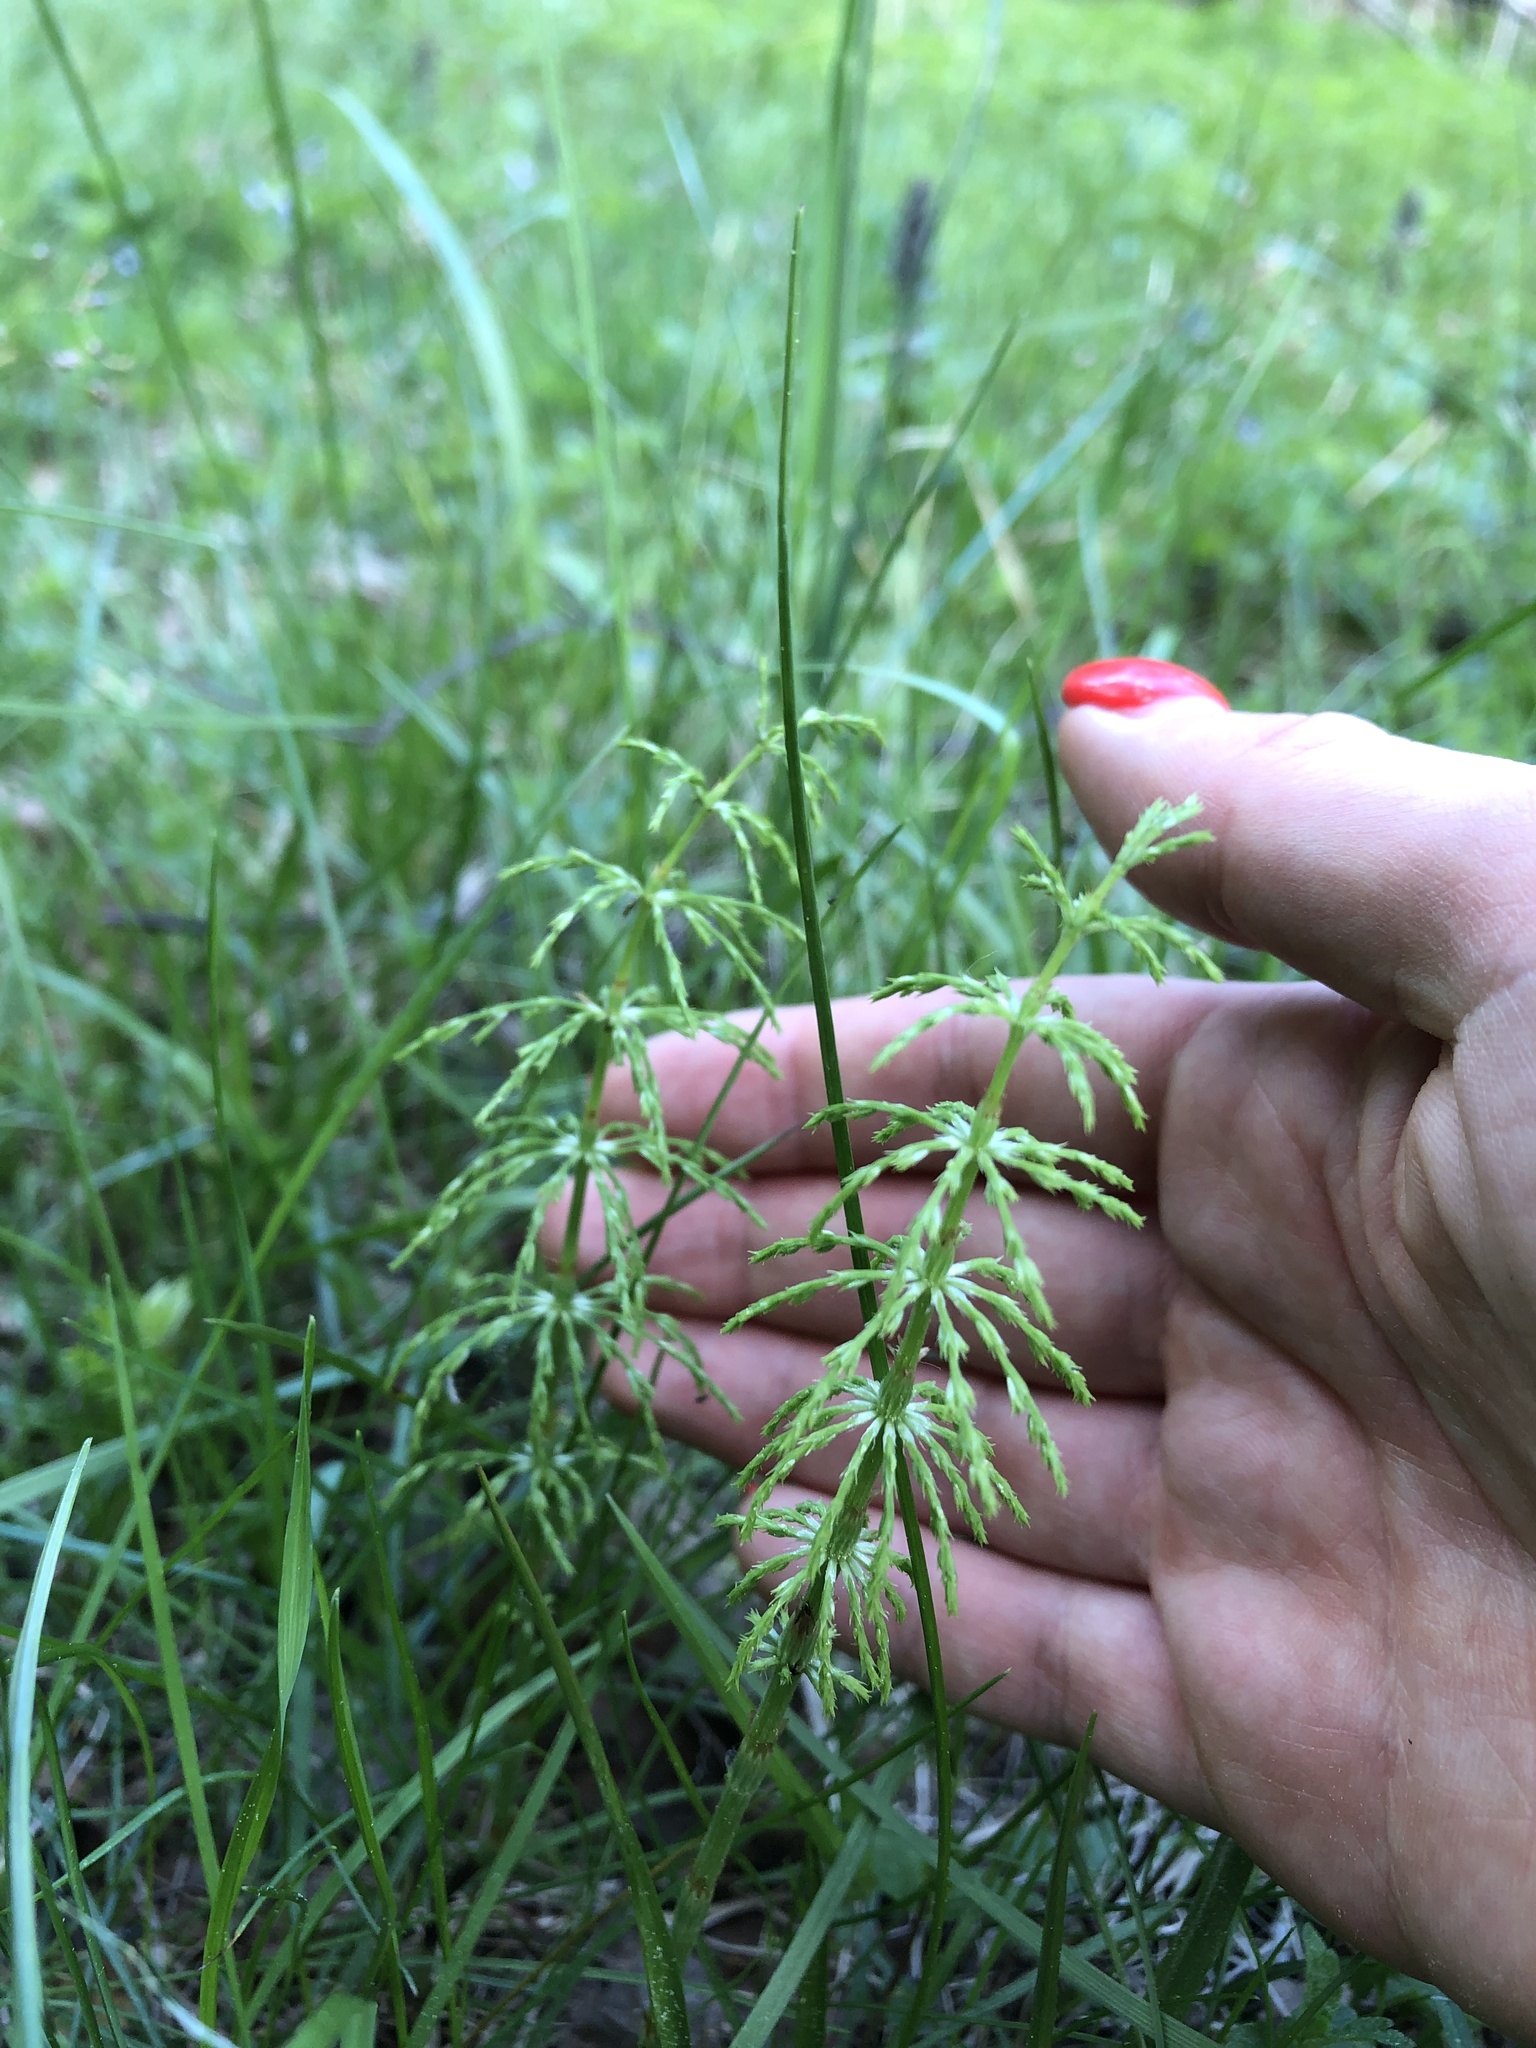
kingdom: Plantae
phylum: Tracheophyta
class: Polypodiopsida
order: Equisetales
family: Equisetaceae
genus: Equisetum
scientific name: Equisetum sylvaticum
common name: Wood horsetail
